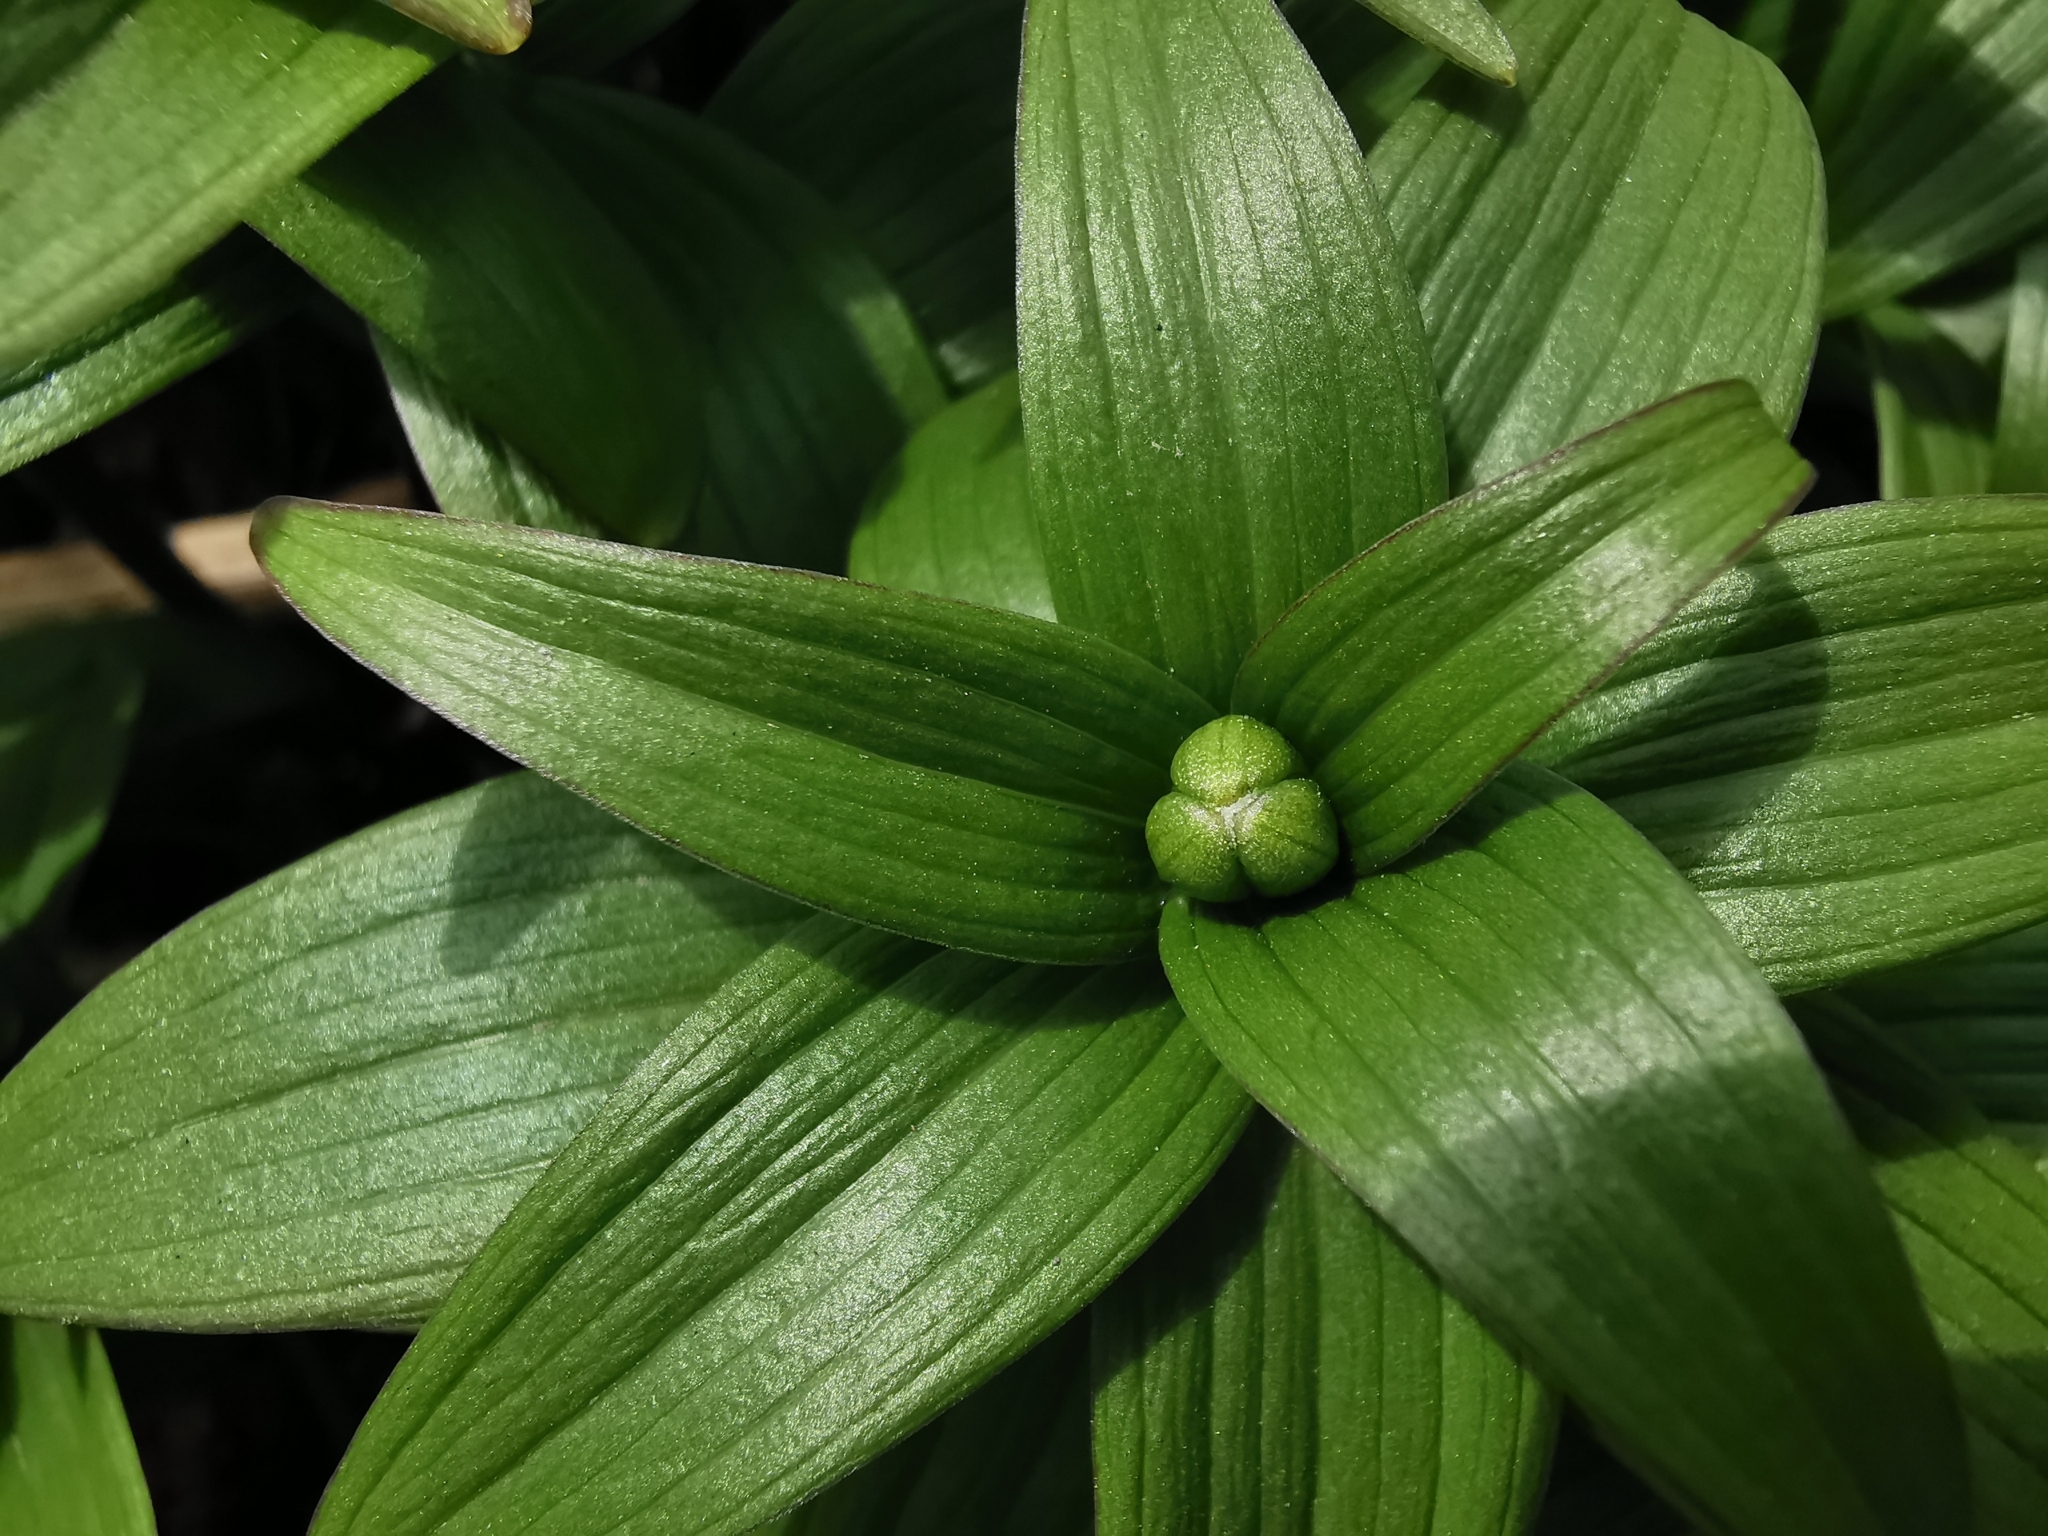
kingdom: Plantae
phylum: Tracheophyta
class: Liliopsida
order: Liliales
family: Liliaceae
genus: Fritillaria
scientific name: Fritillaria camschatcensis
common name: Kamchatka fritillary
